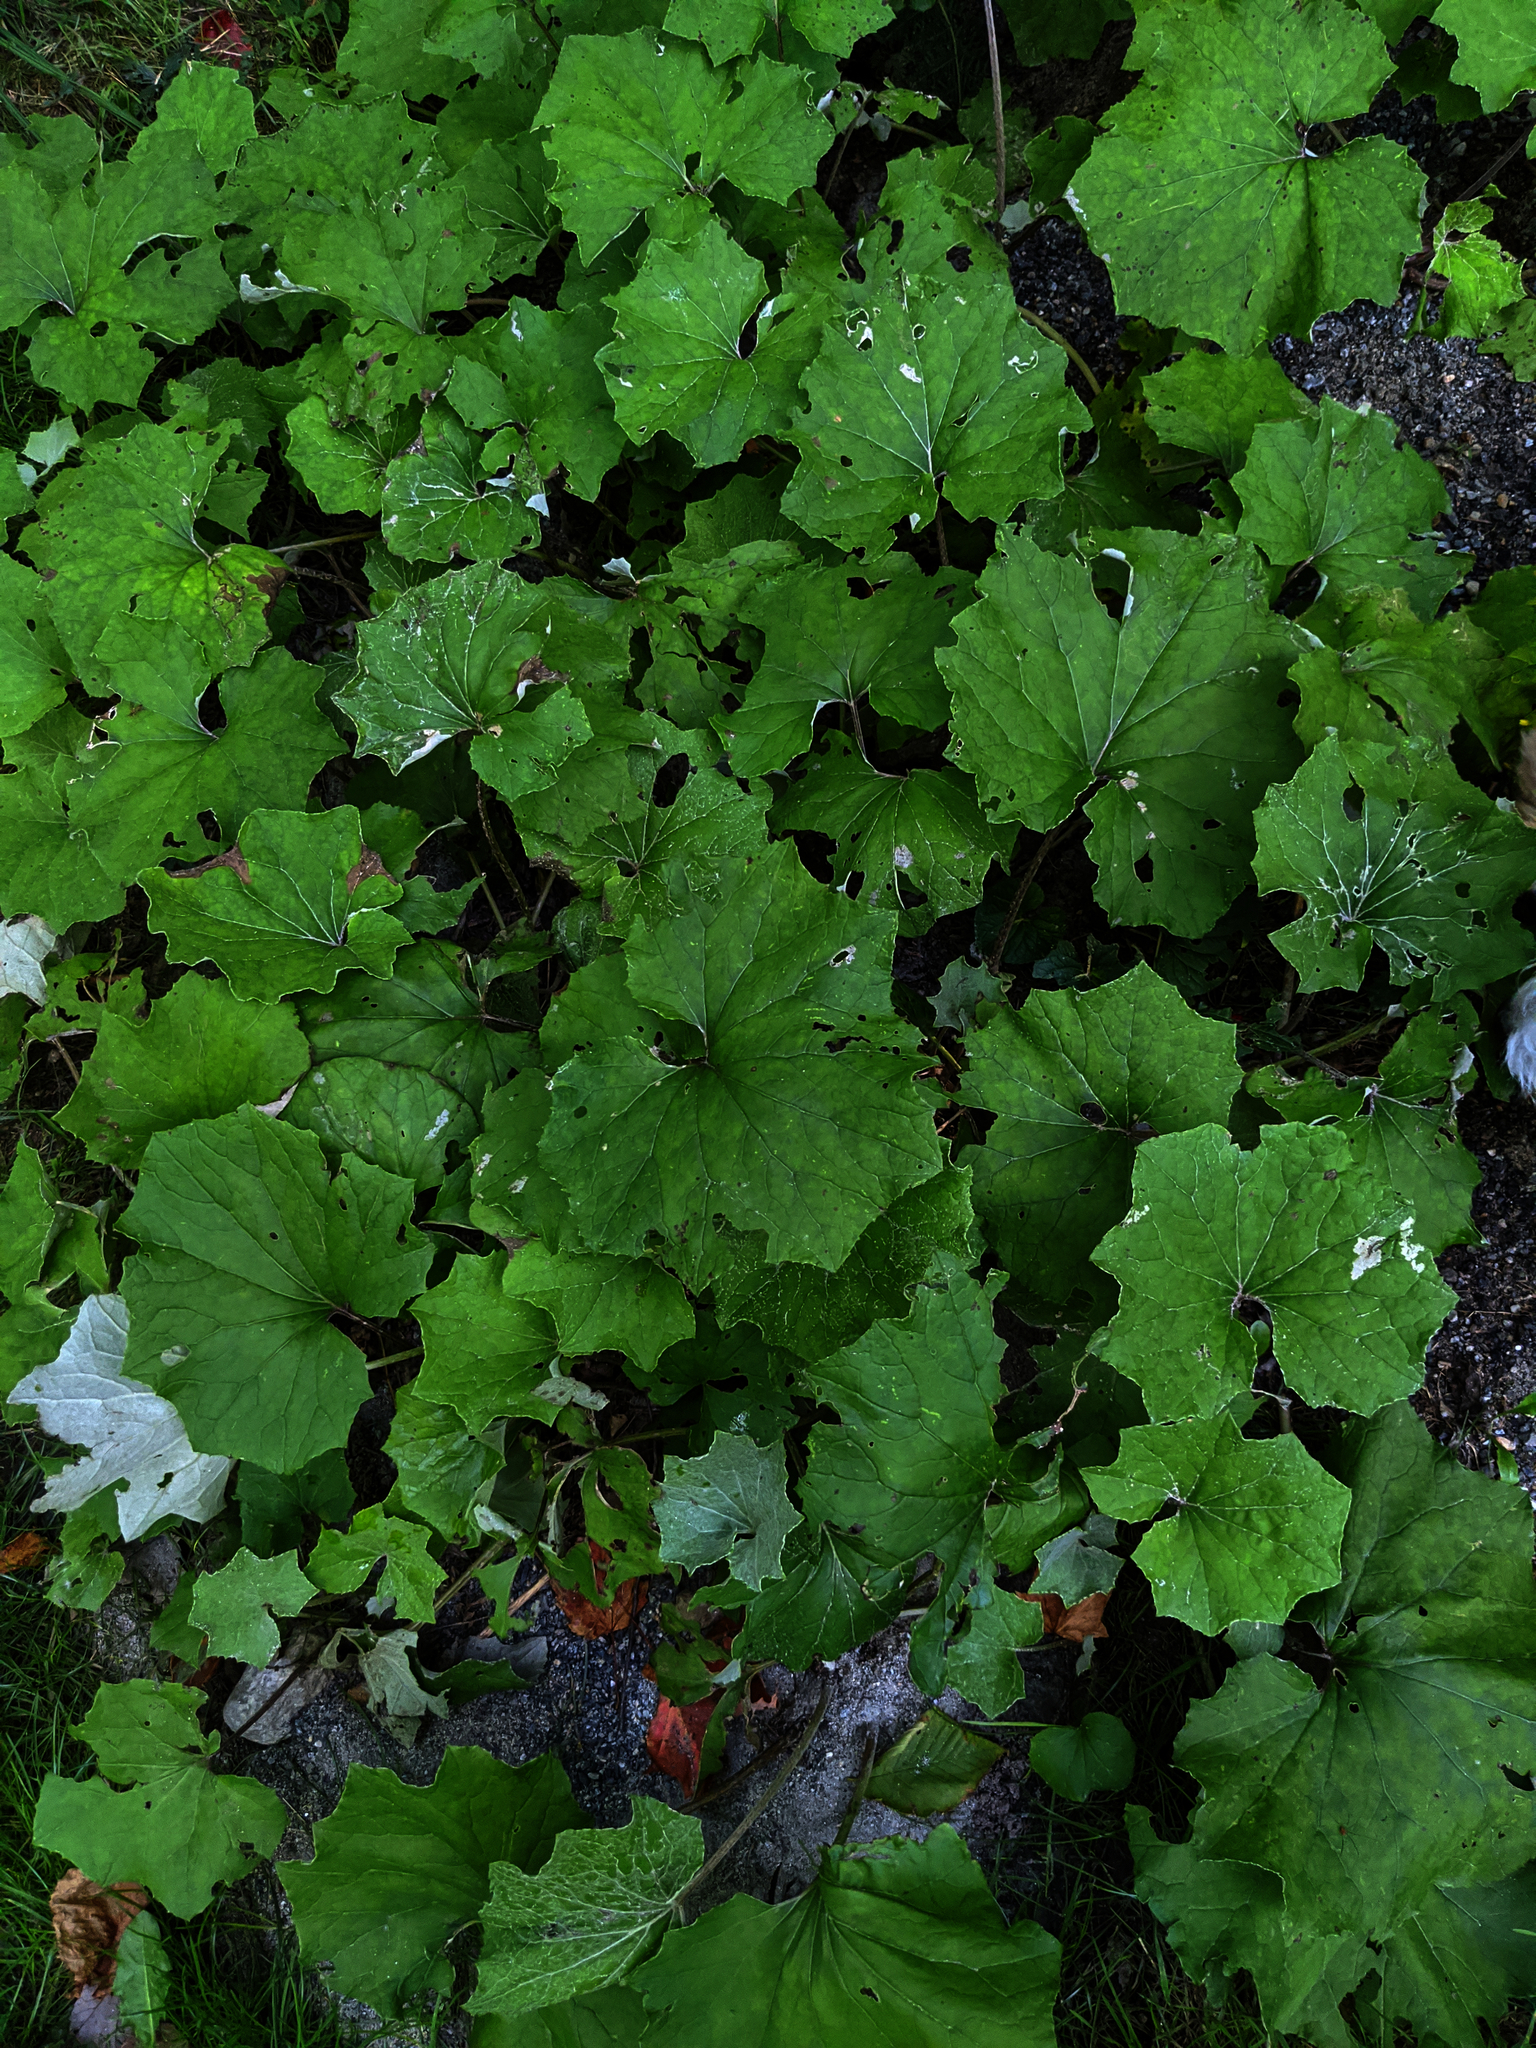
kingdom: Plantae
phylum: Tracheophyta
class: Magnoliopsida
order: Asterales
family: Asteraceae
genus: Tussilago
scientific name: Tussilago farfara
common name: Coltsfoot
